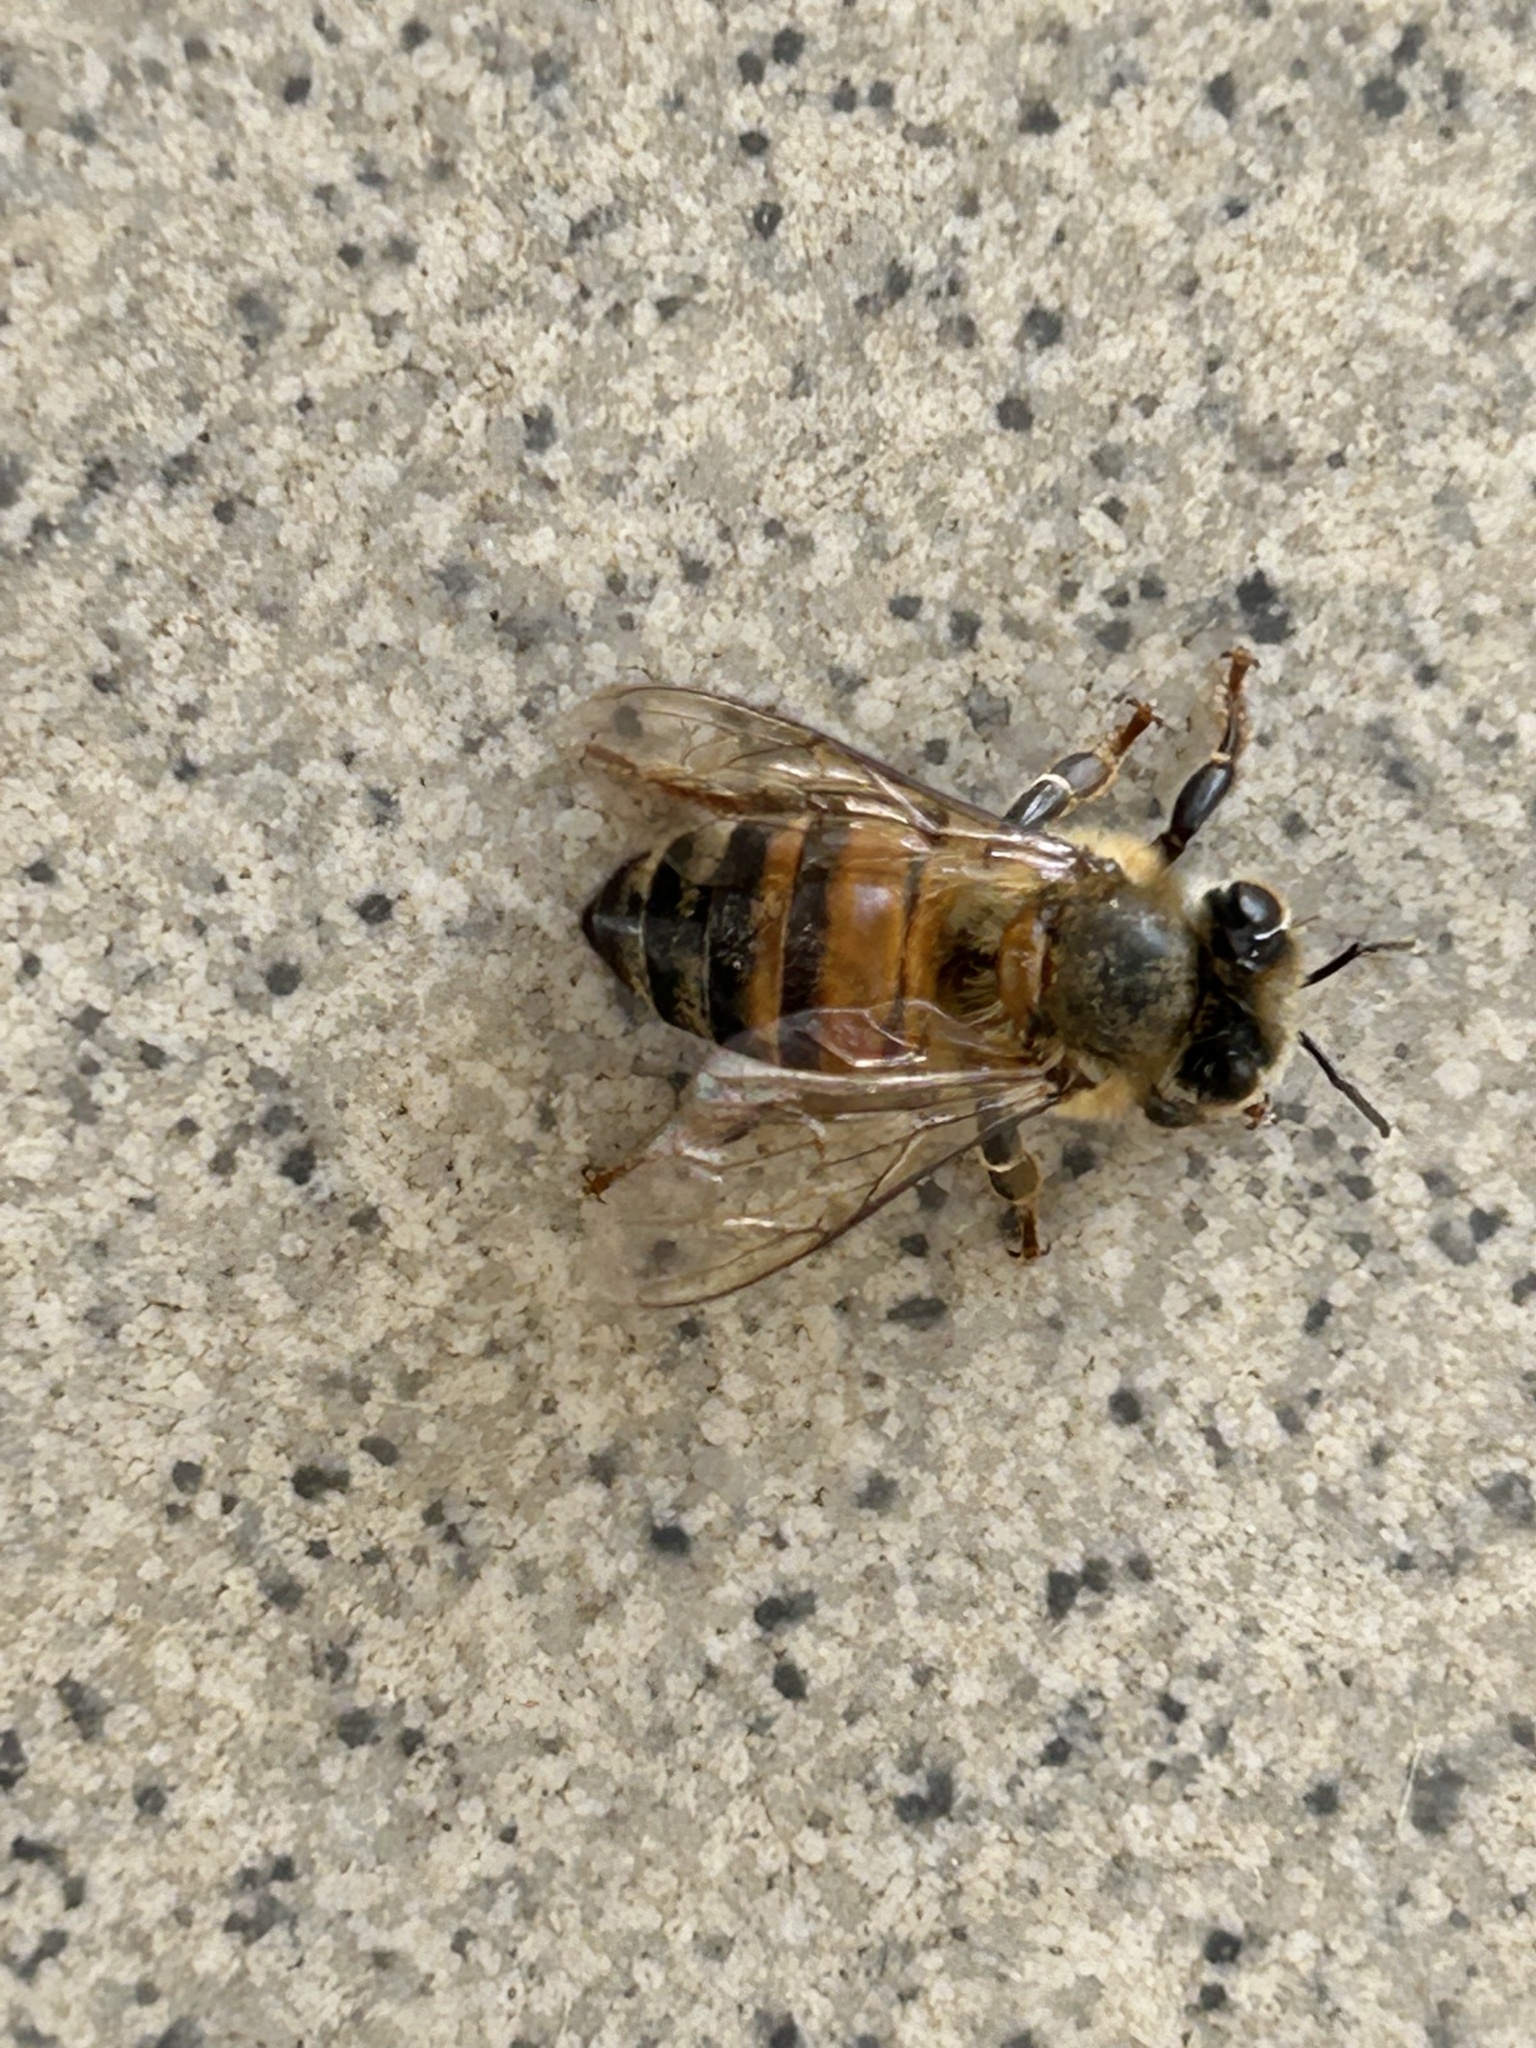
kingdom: Animalia
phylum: Arthropoda
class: Insecta
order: Hymenoptera
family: Apidae
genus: Apis
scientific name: Apis mellifera
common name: Honey bee
